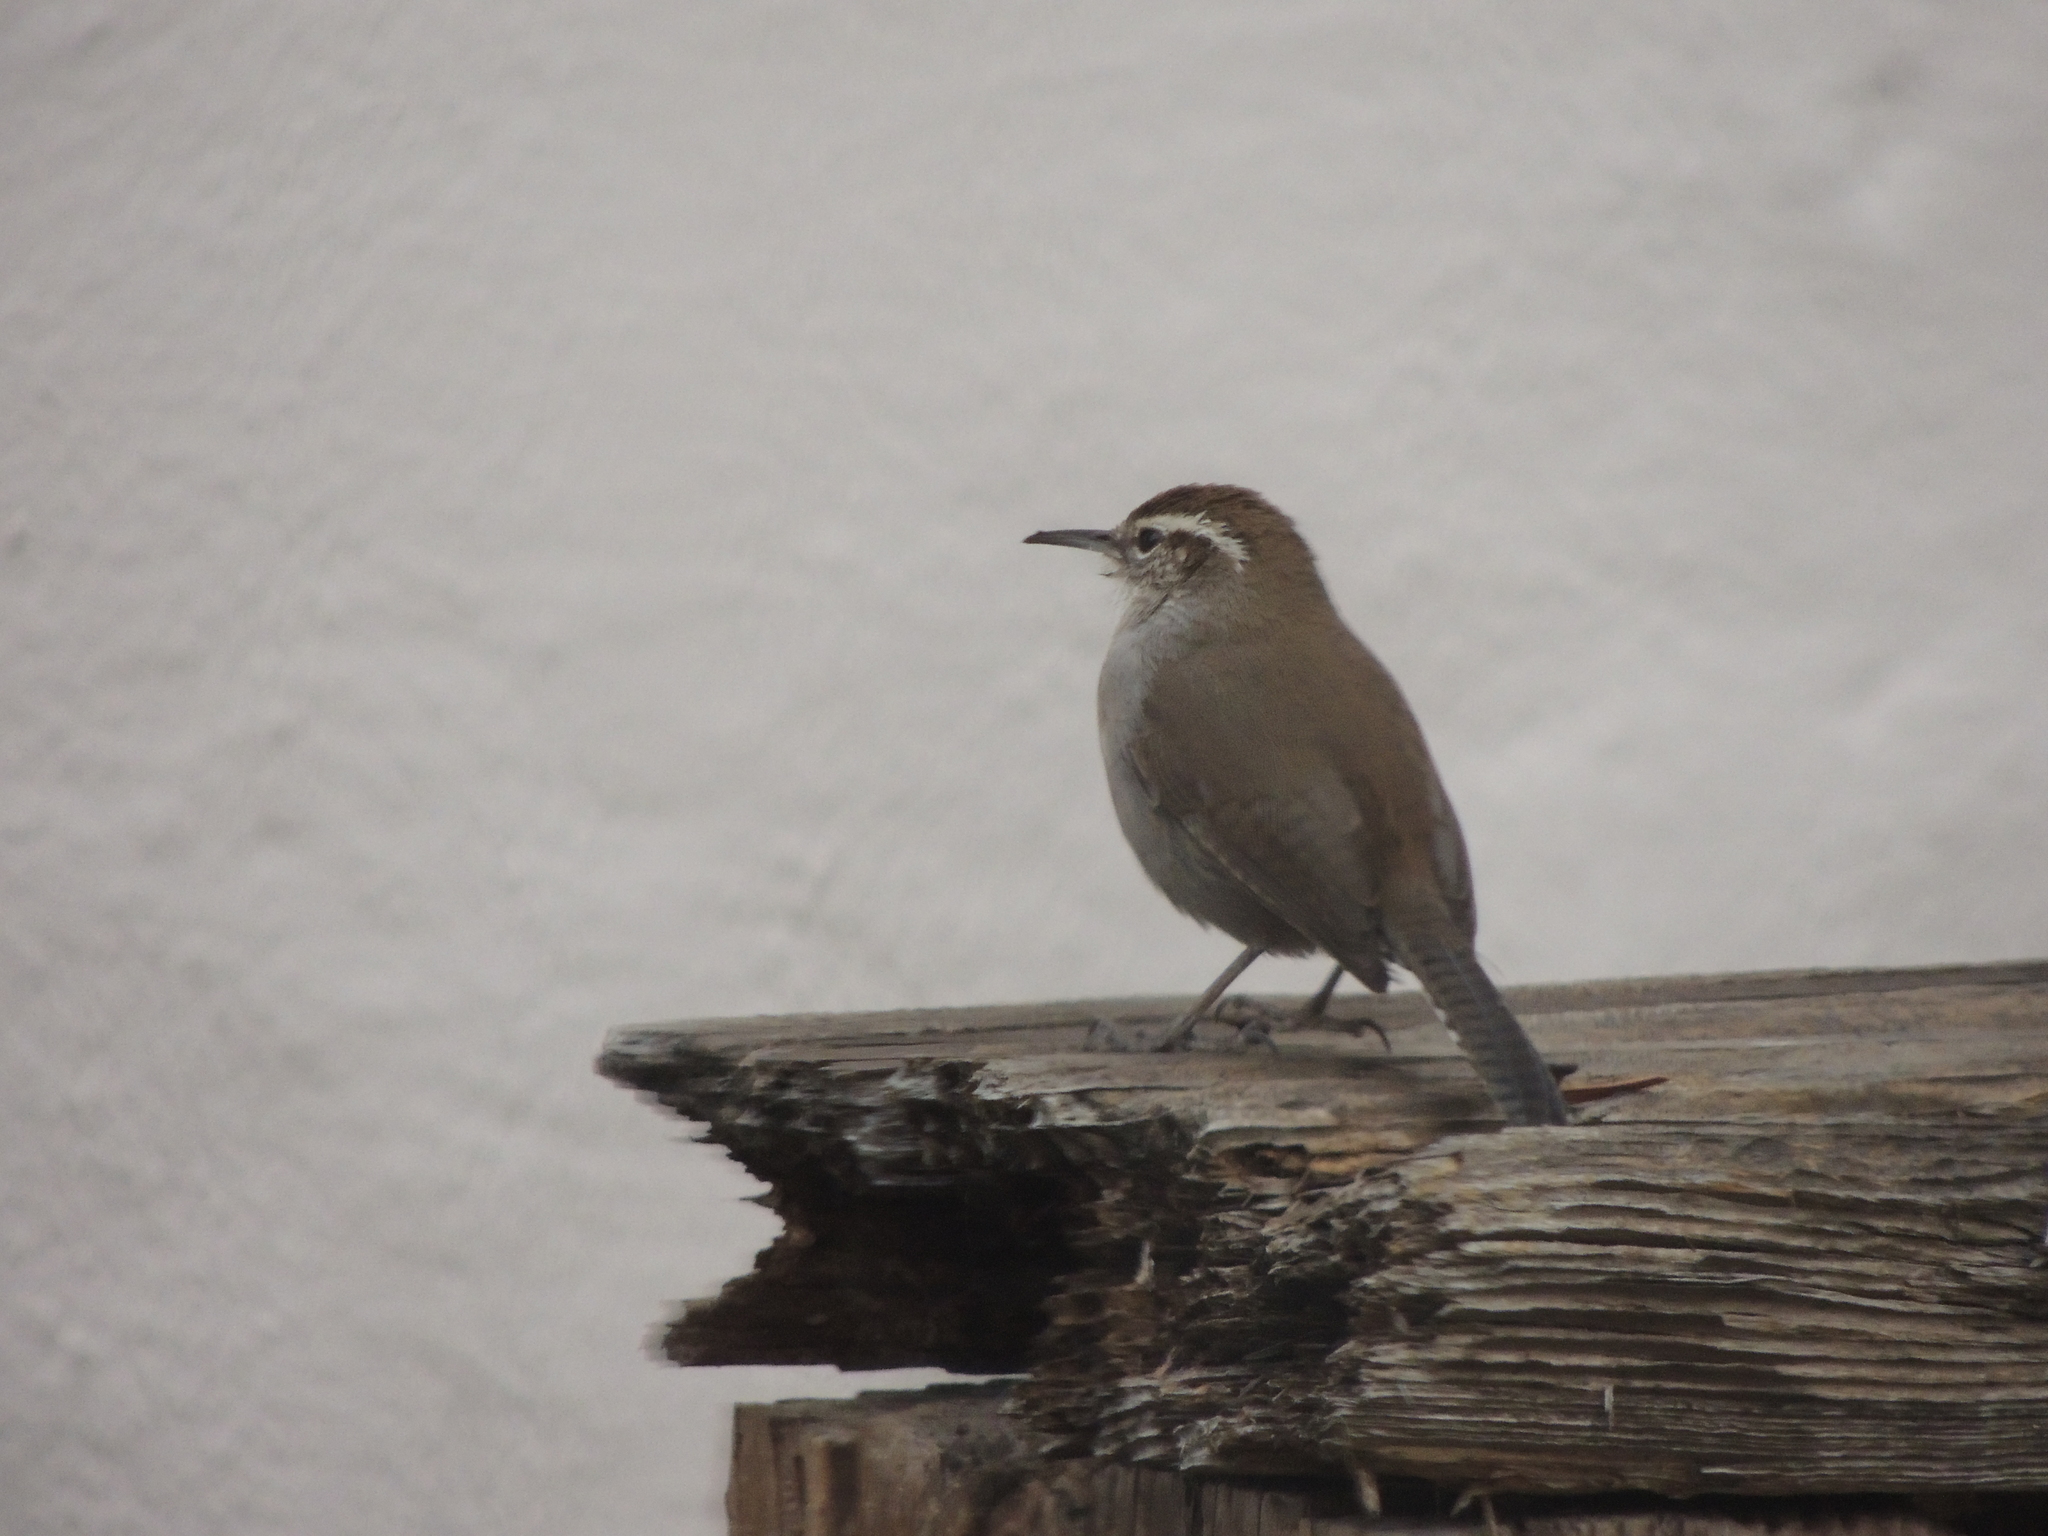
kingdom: Animalia
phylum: Chordata
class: Aves
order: Passeriformes
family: Troglodytidae
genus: Thryomanes
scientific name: Thryomanes bewickii
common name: Bewick's wren
